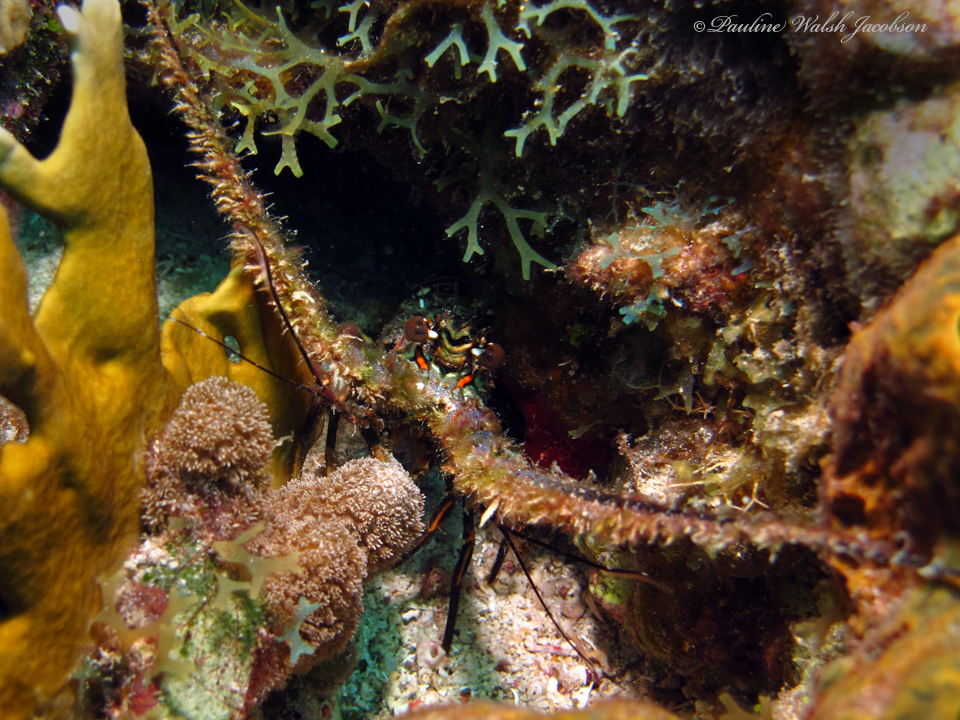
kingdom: Animalia
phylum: Arthropoda
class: Malacostraca
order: Decapoda
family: Palinuridae
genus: Panulirus
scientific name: Panulirus argus
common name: Caribbean spiny lobster
